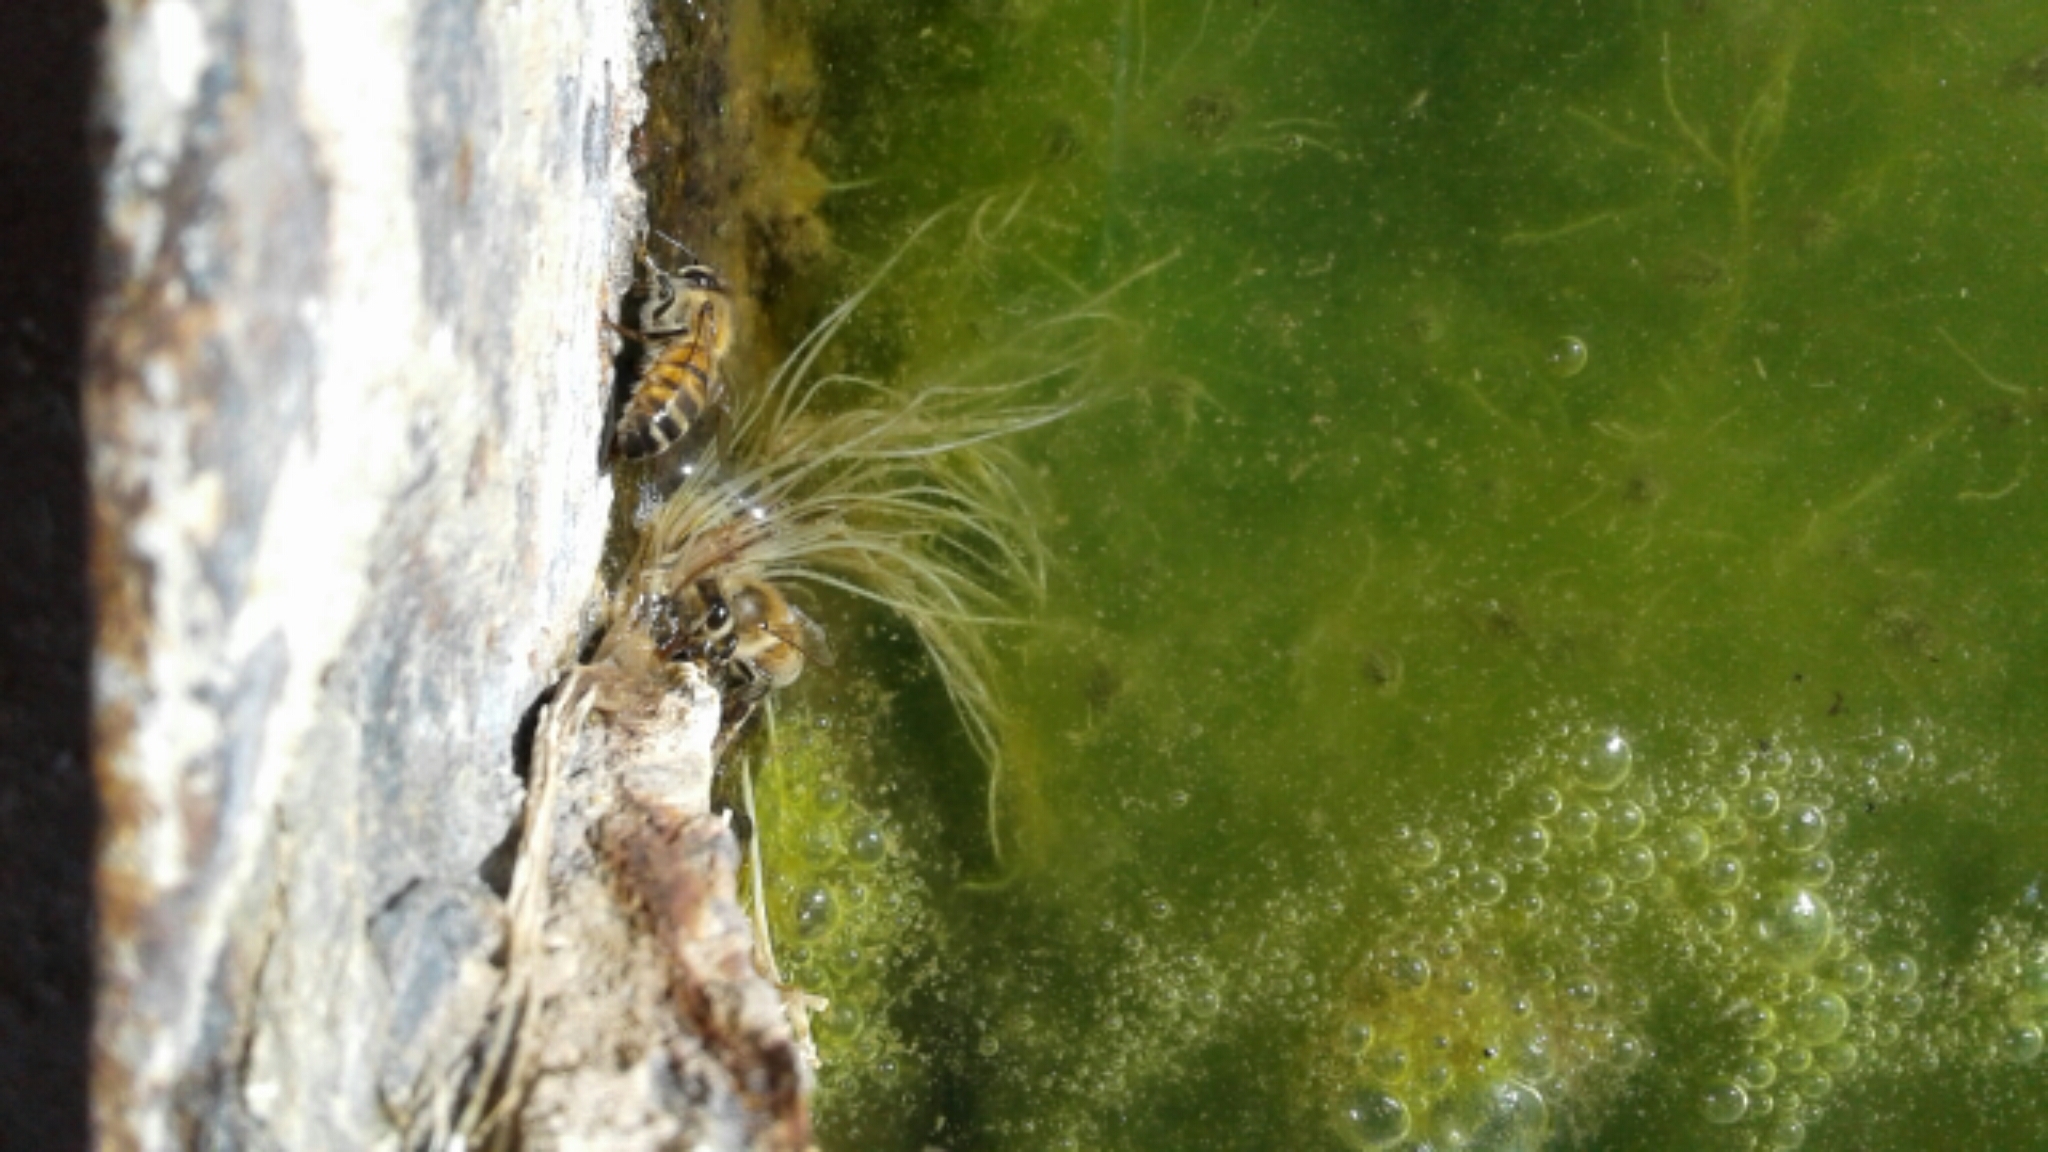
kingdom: Animalia
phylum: Arthropoda
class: Insecta
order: Hymenoptera
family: Apidae
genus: Apis
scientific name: Apis mellifera
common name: Honey bee
